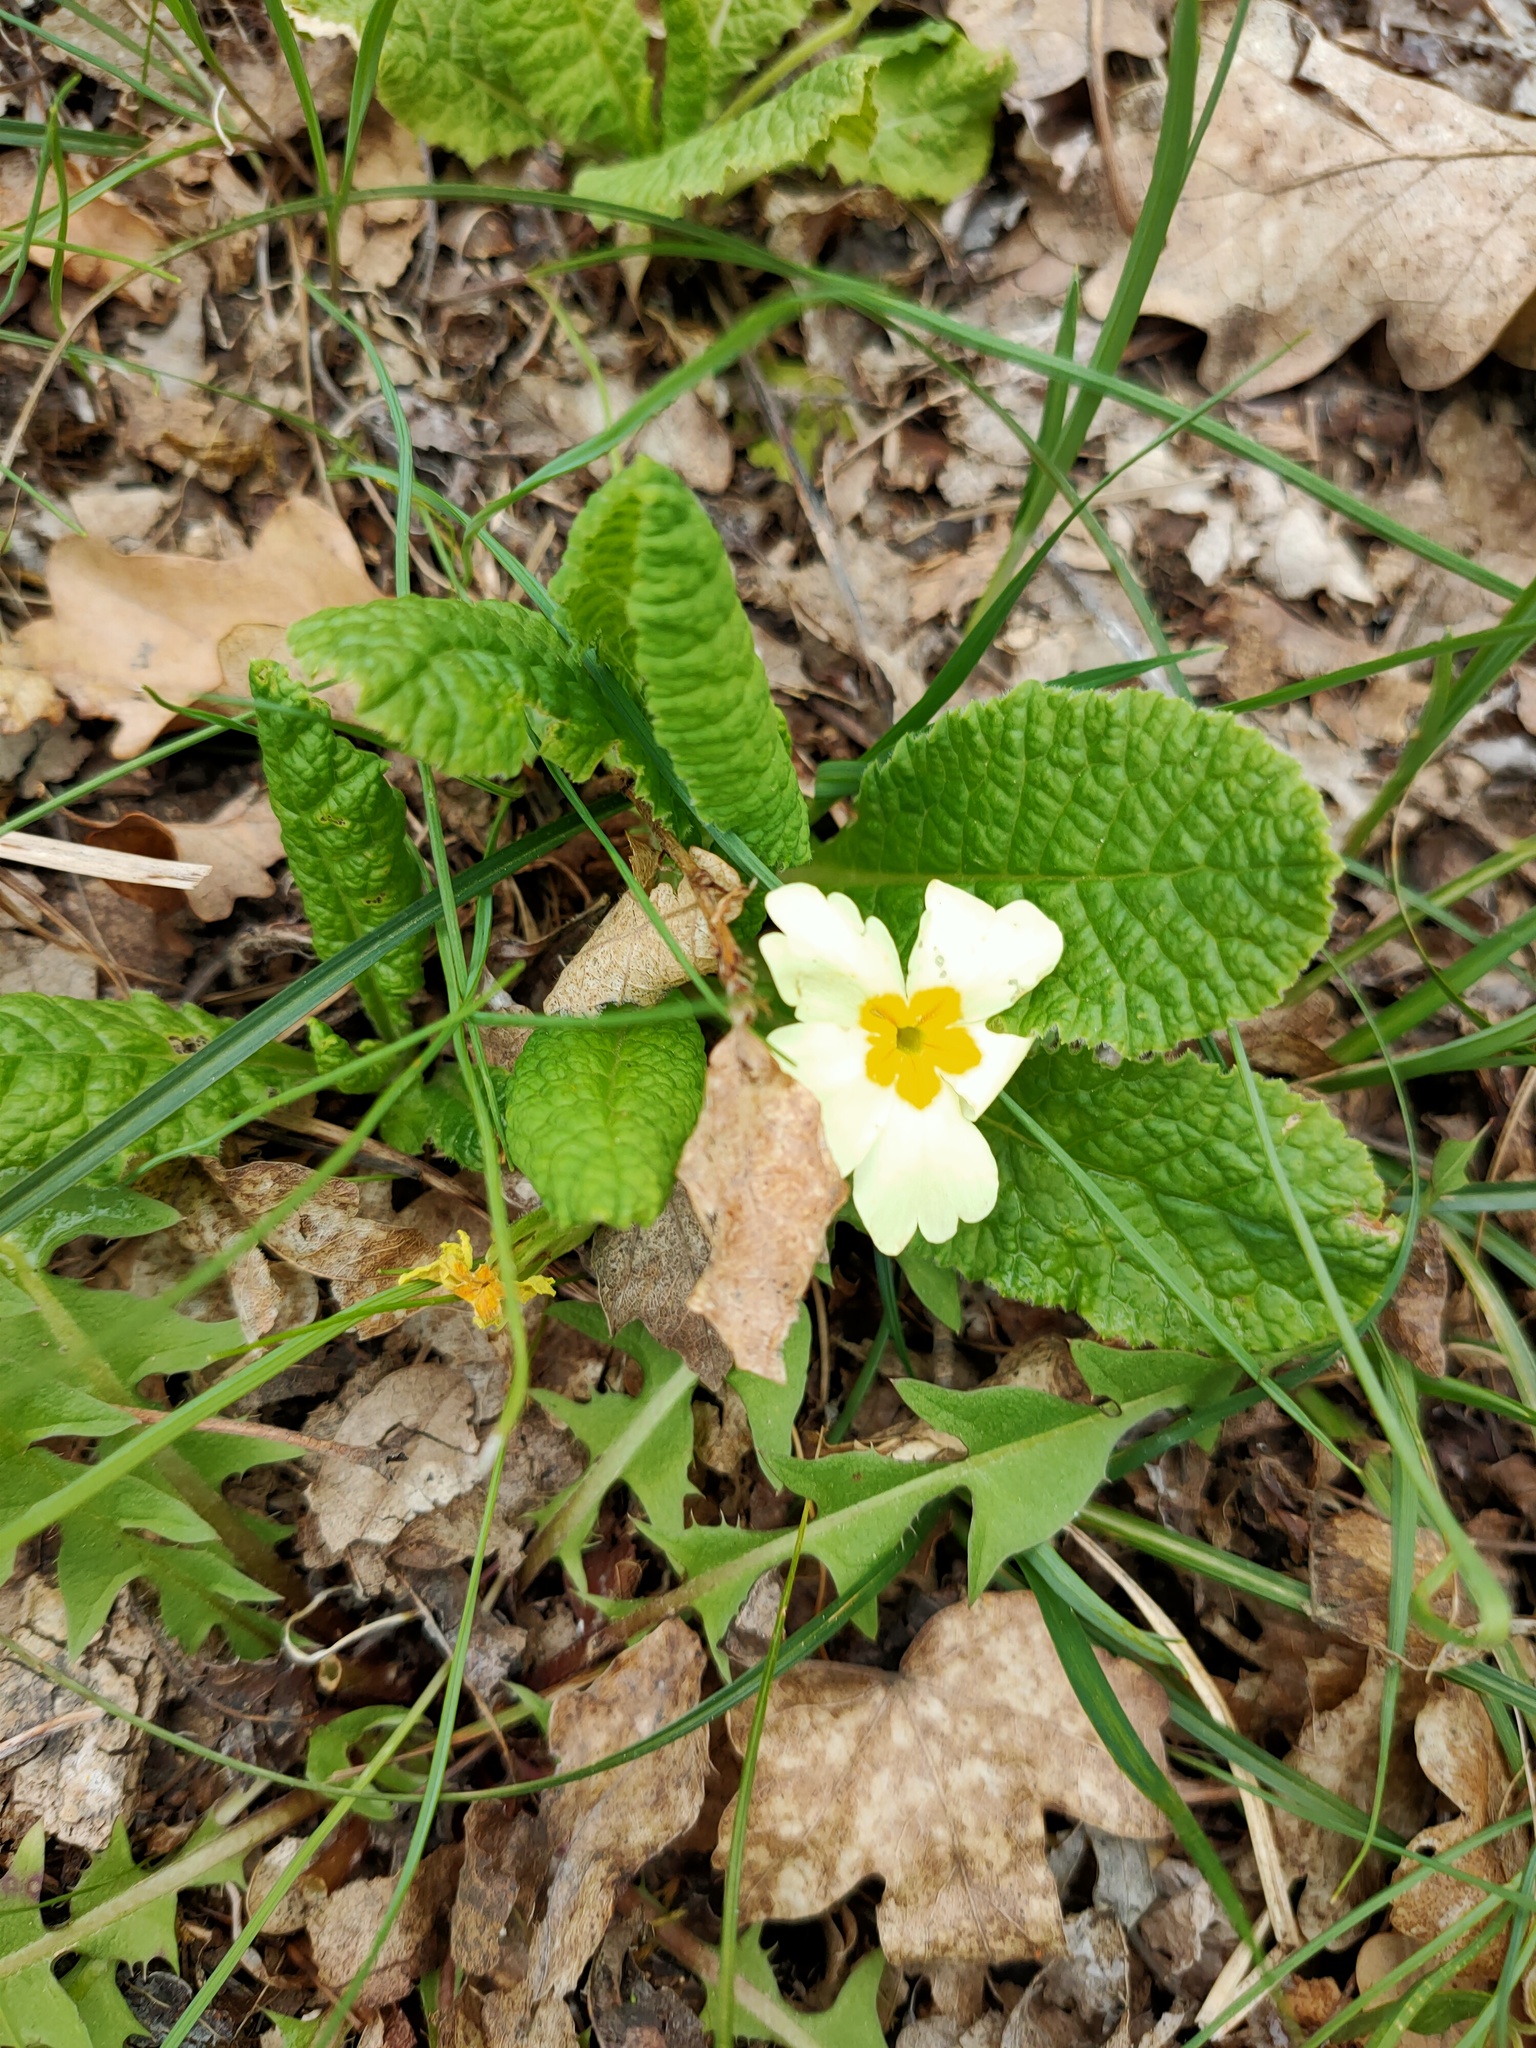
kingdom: Plantae
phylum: Tracheophyta
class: Magnoliopsida
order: Ericales
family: Primulaceae
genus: Primula
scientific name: Primula vulgaris
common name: Primrose
